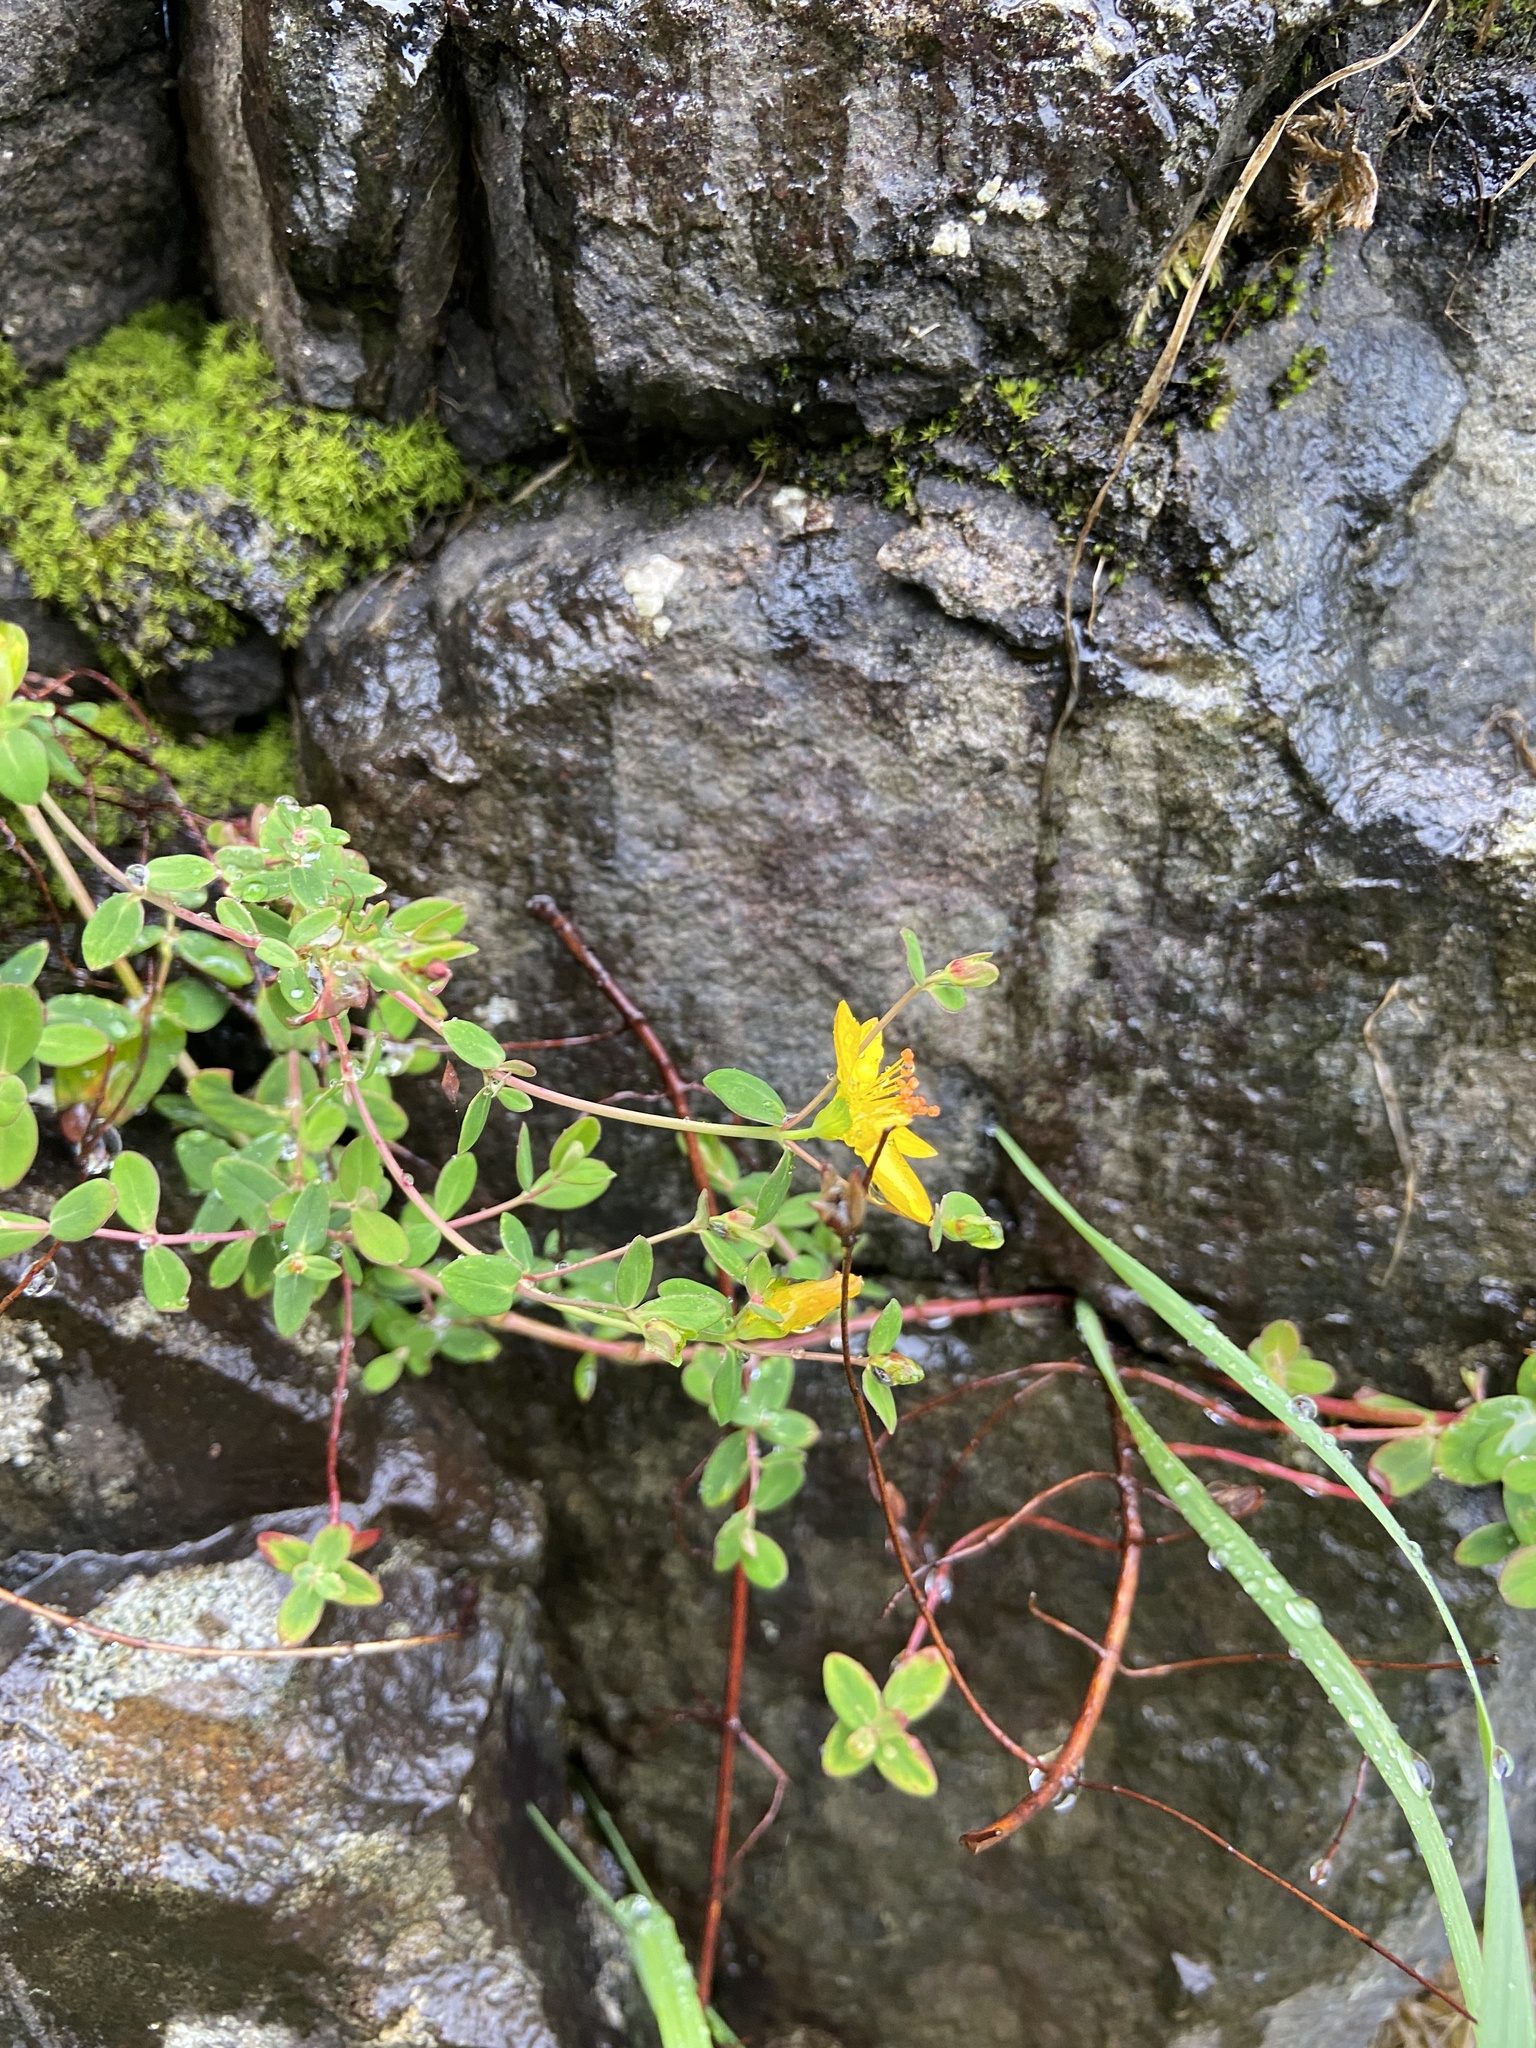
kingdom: Plantae
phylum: Tracheophyta
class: Magnoliopsida
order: Malpighiales
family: Hypericaceae
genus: Hypericum
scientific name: Hypericum pulchrum
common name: Slender st. john's-wort
